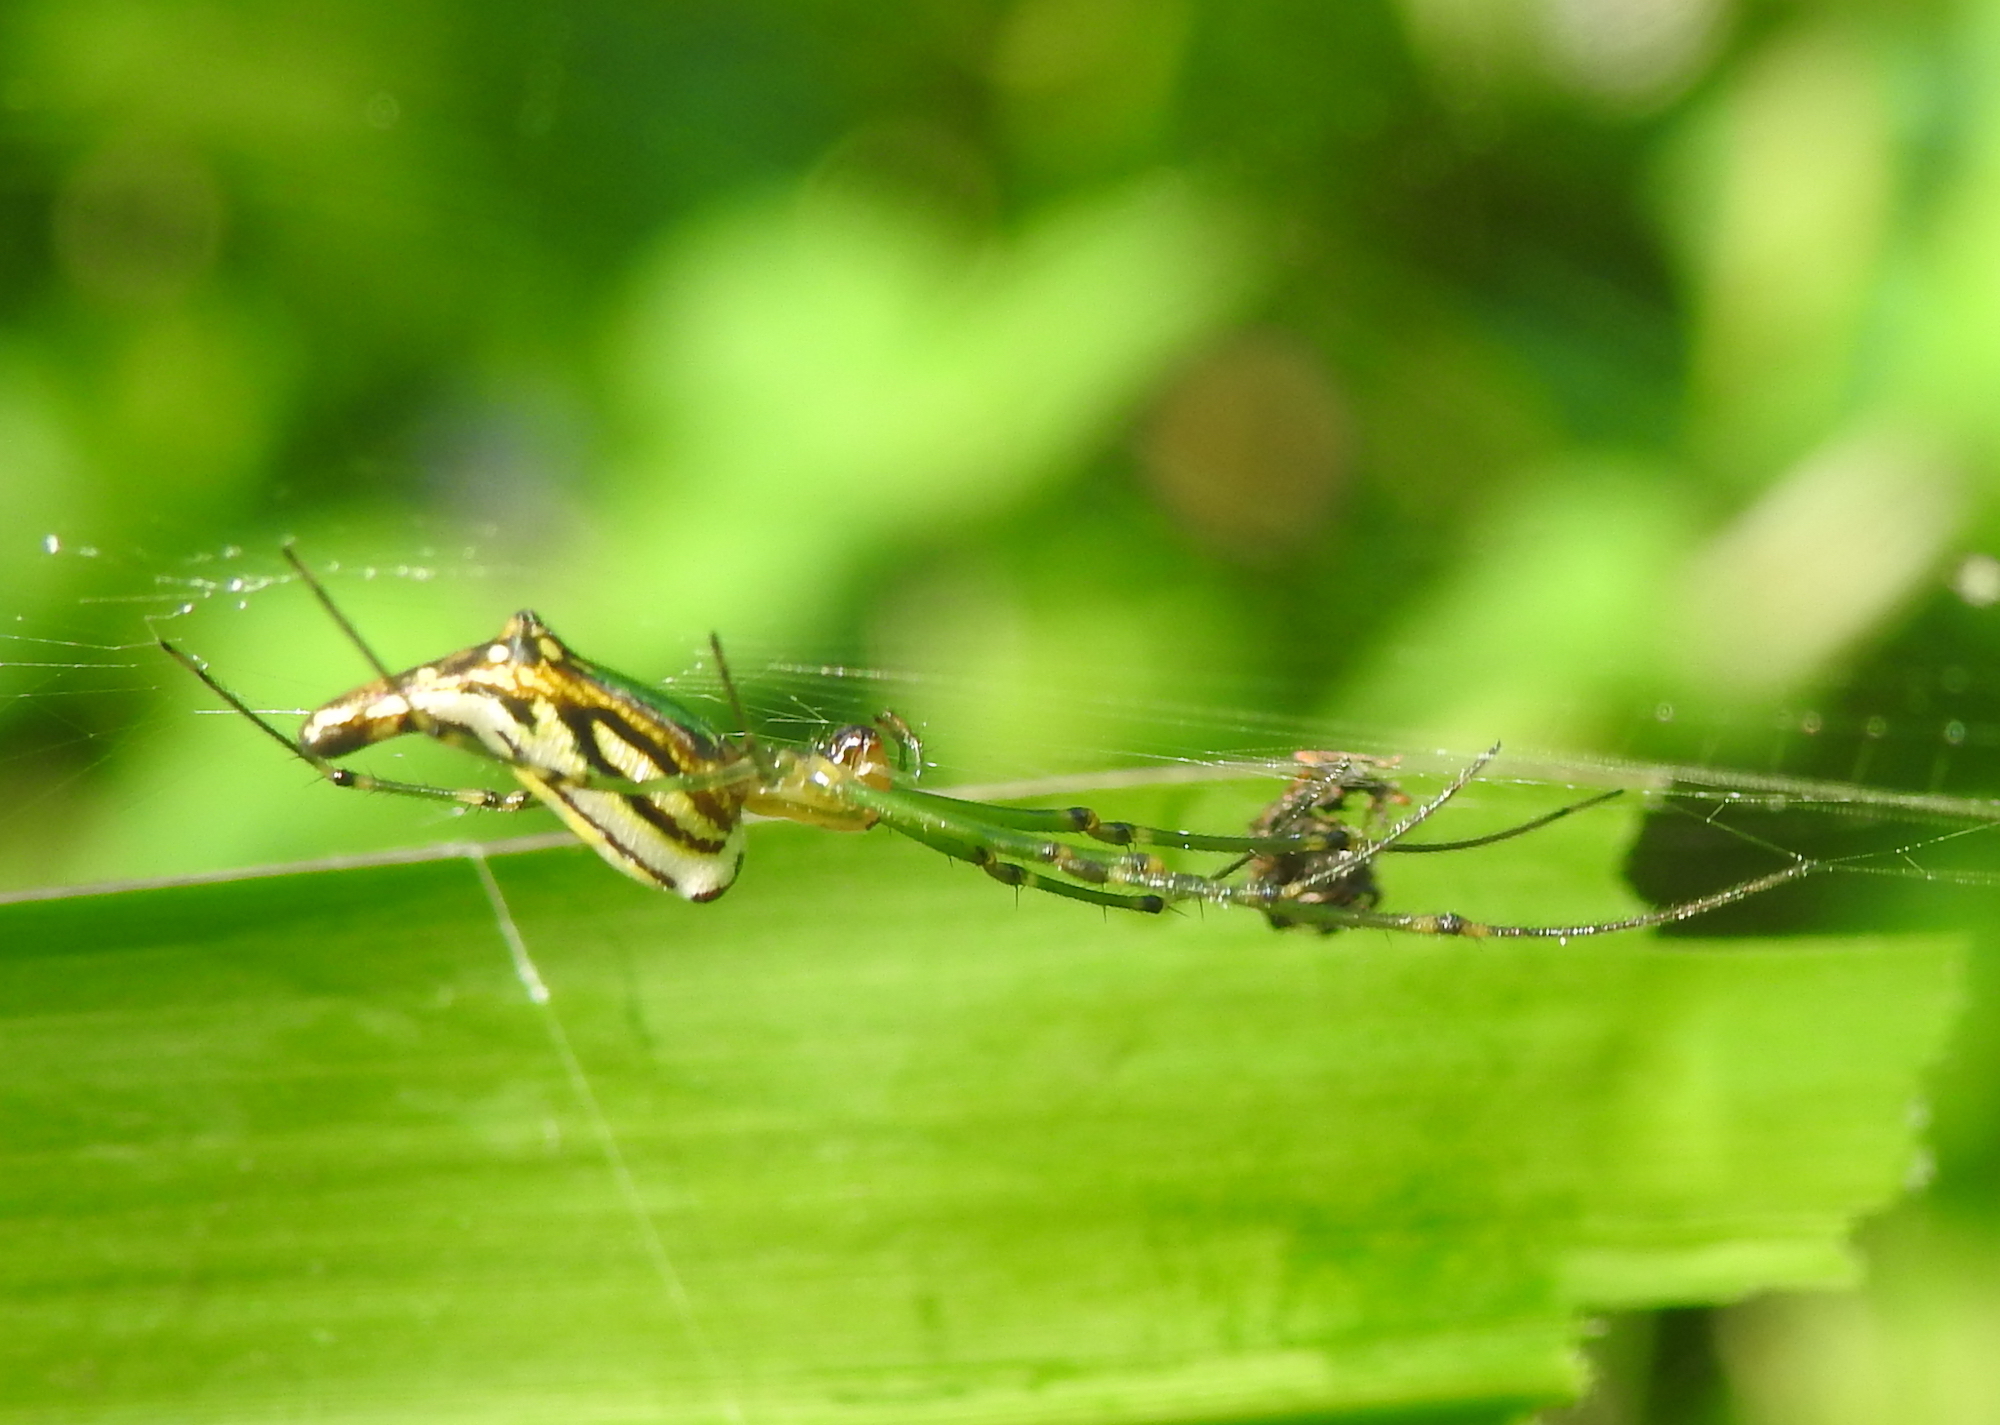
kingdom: Animalia
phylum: Arthropoda
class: Arachnida
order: Araneae
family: Tetragnathidae
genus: Leucauge
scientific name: Leucauge decorata
